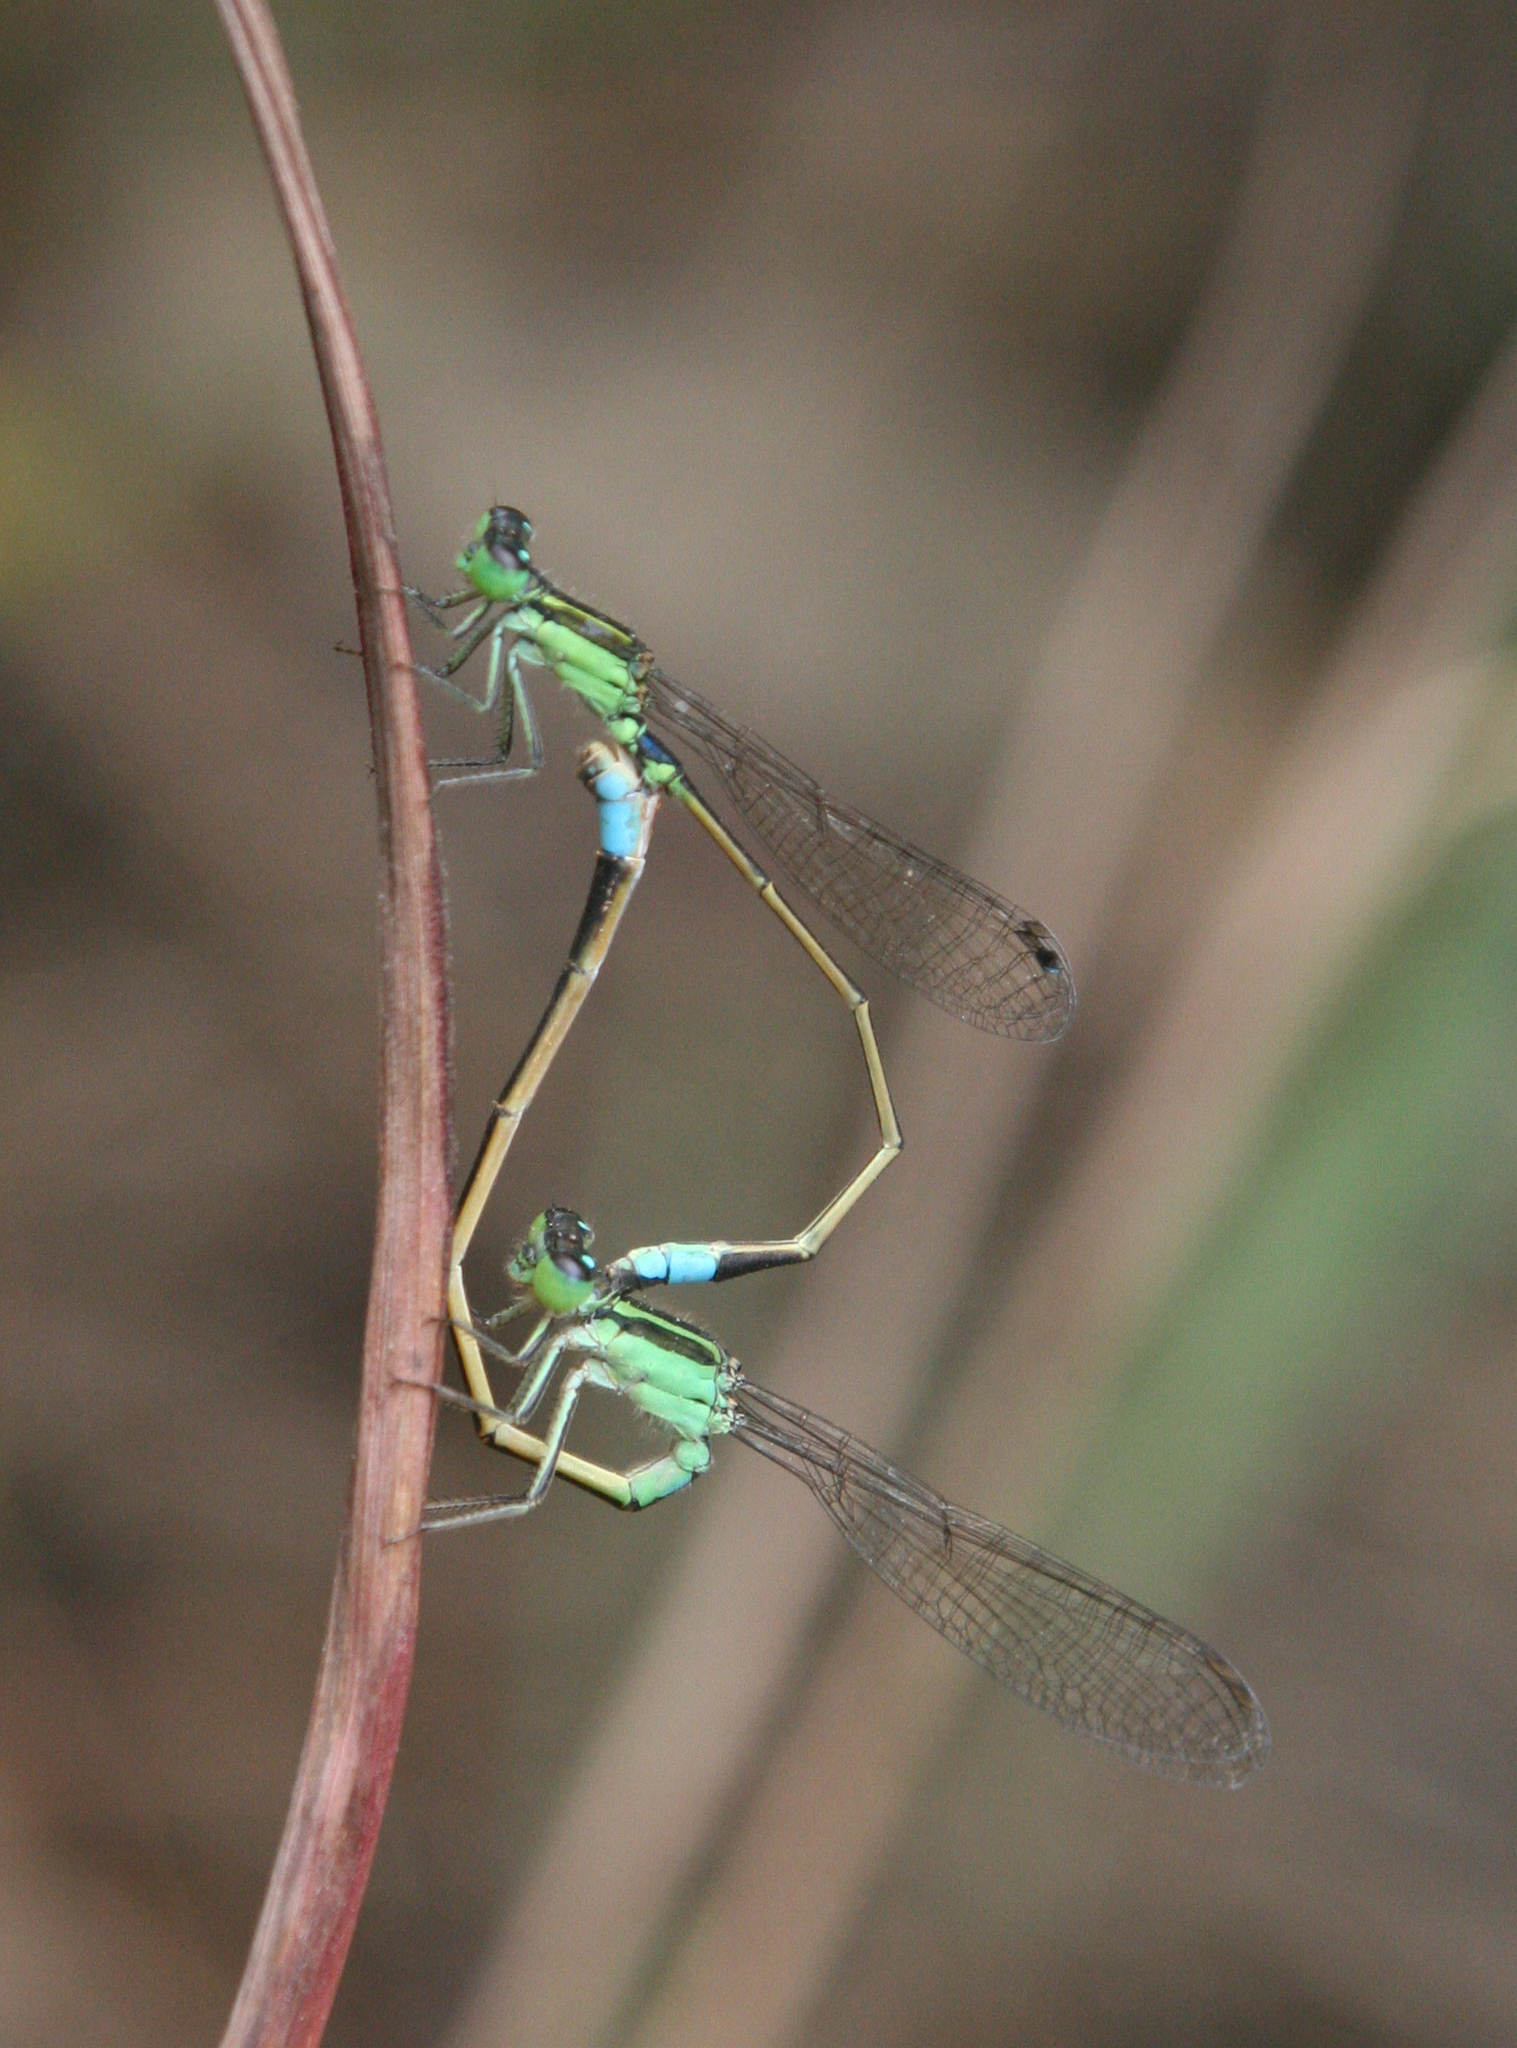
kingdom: Animalia
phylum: Arthropoda
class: Insecta
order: Odonata
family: Coenagrionidae
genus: Ischnura
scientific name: Ischnura senegalensis
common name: Tropical bluetail
